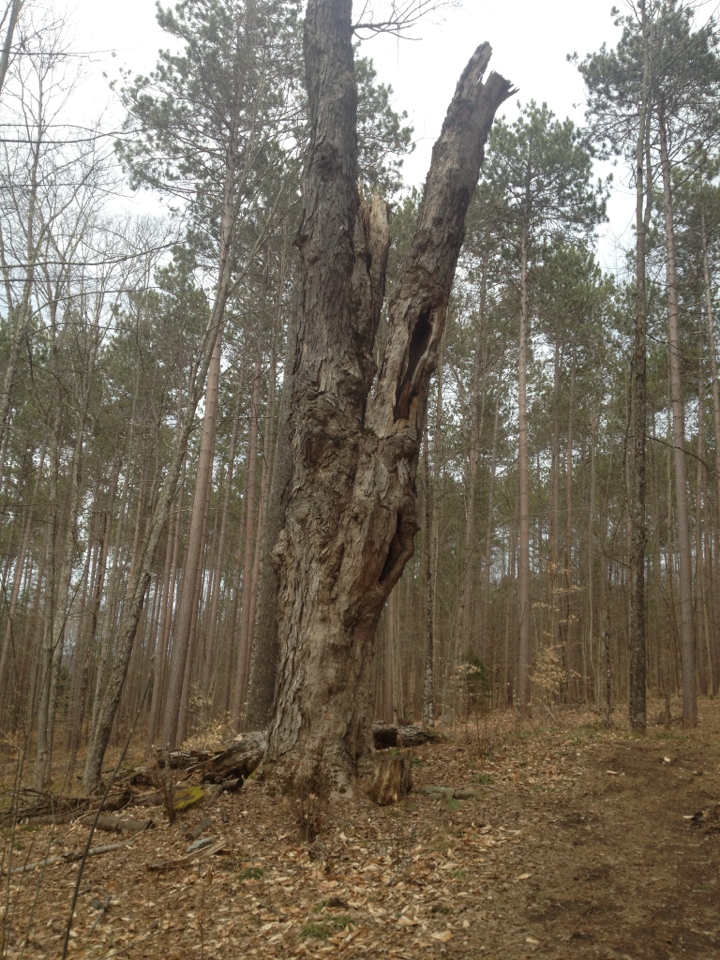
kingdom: Plantae
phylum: Tracheophyta
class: Magnoliopsida
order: Sapindales
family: Sapindaceae
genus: Acer
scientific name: Acer saccharum
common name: Sugar maple
